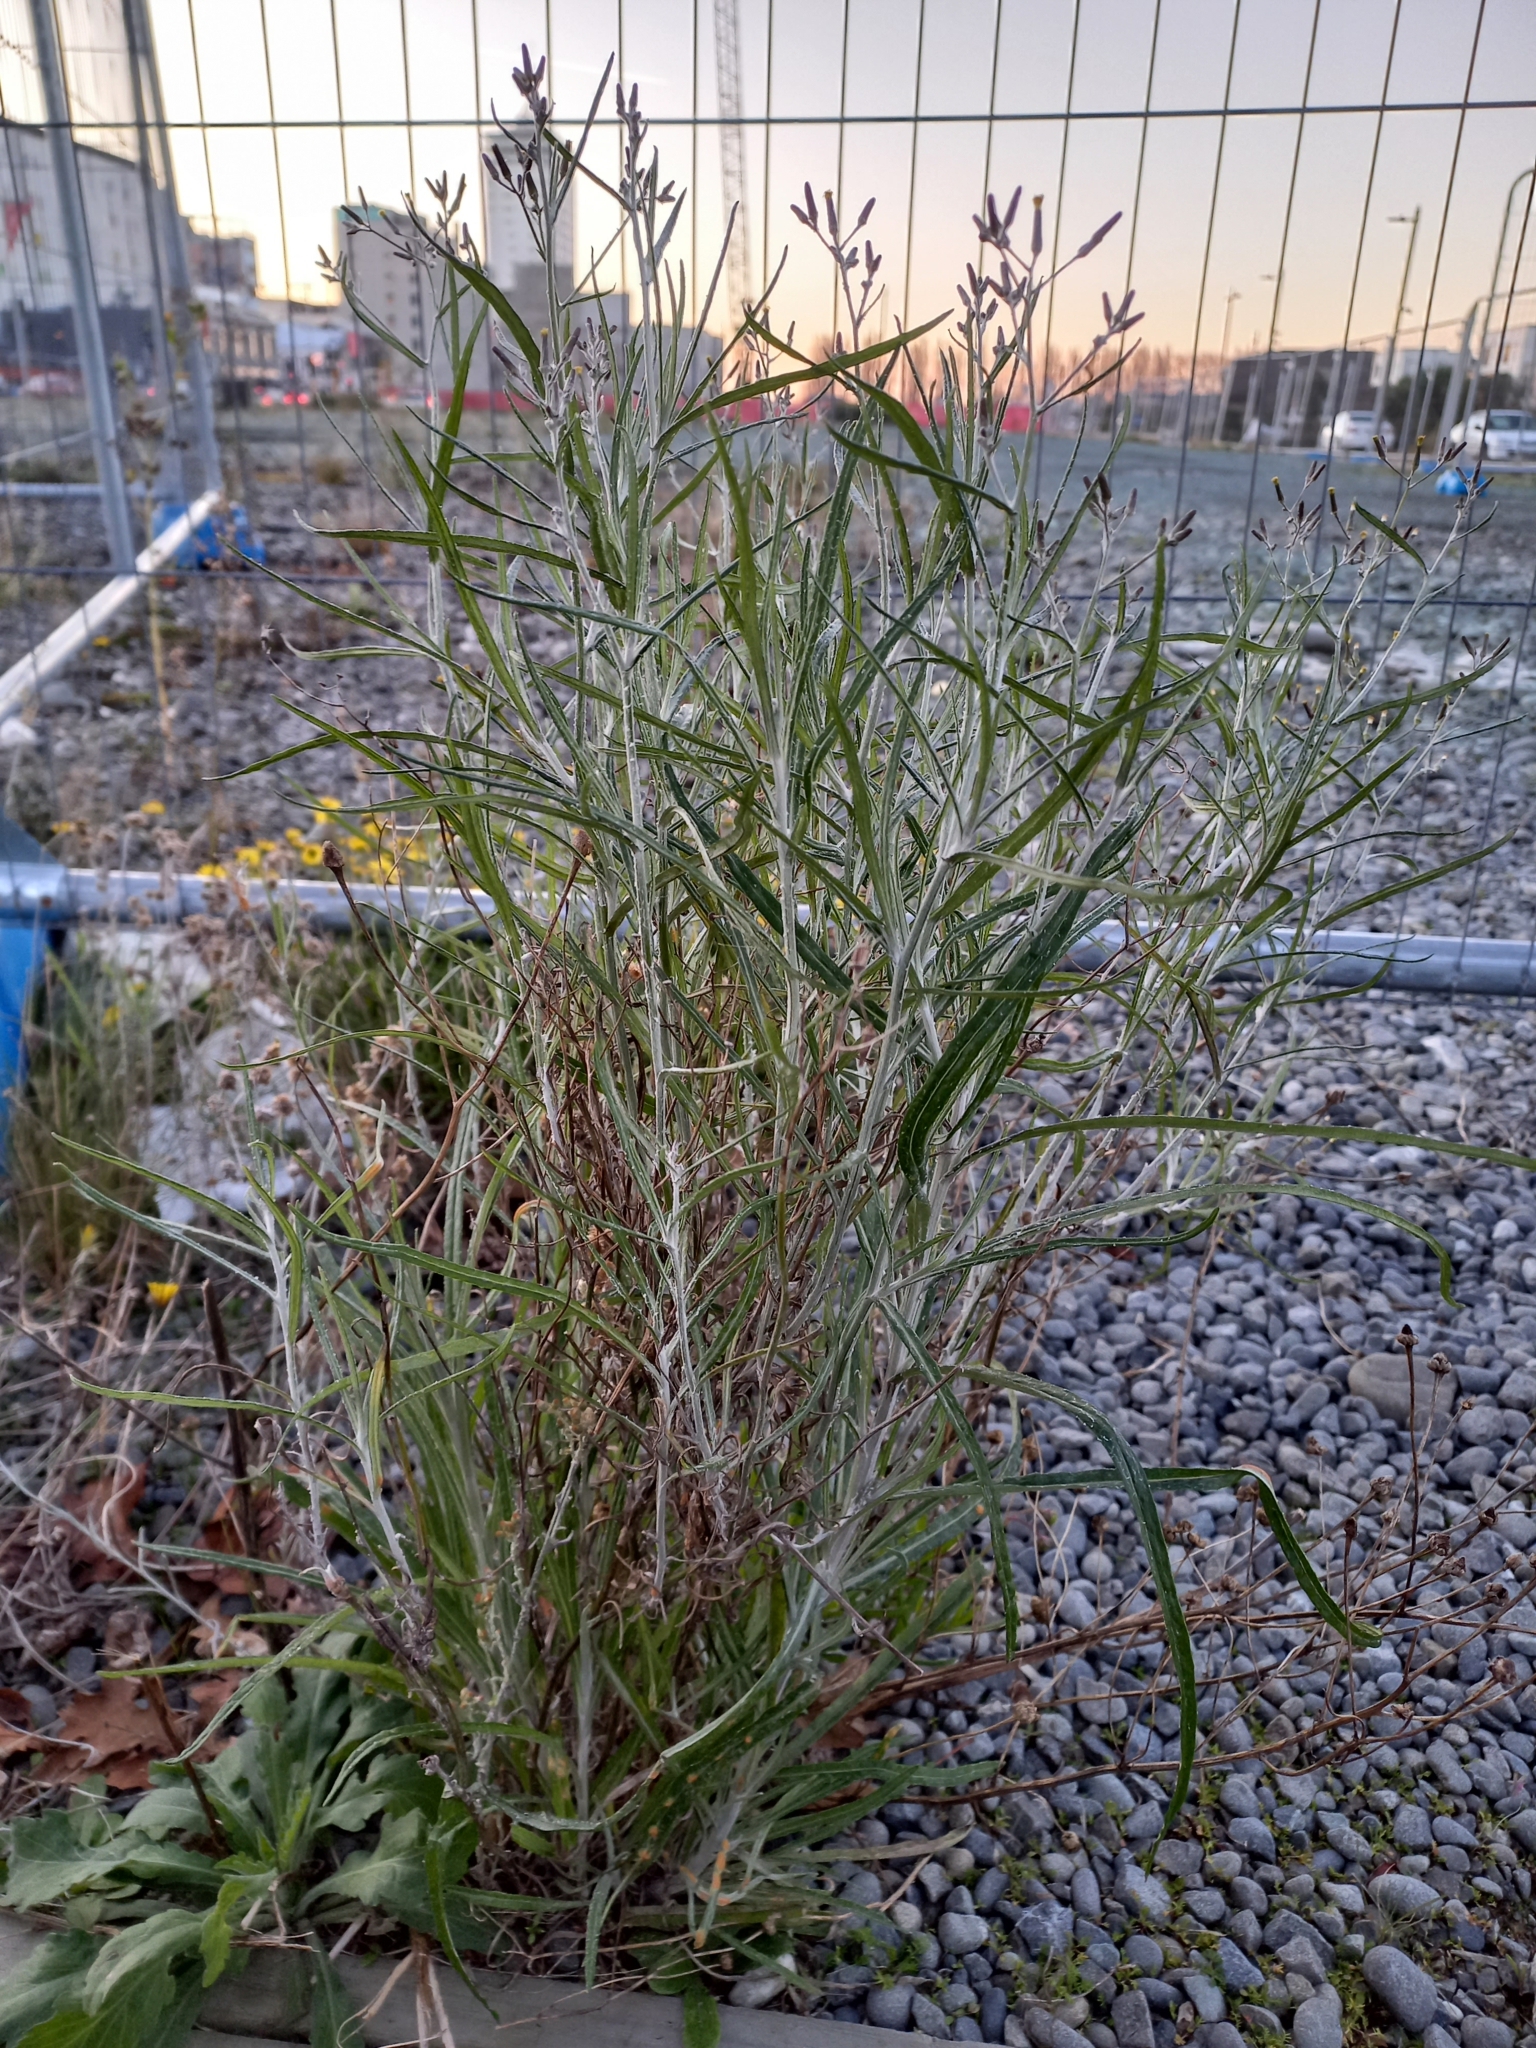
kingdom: Plantae
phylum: Tracheophyta
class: Magnoliopsida
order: Asterales
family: Asteraceae
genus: Senecio
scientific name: Senecio quadridentatus
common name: Cotton fireweed
